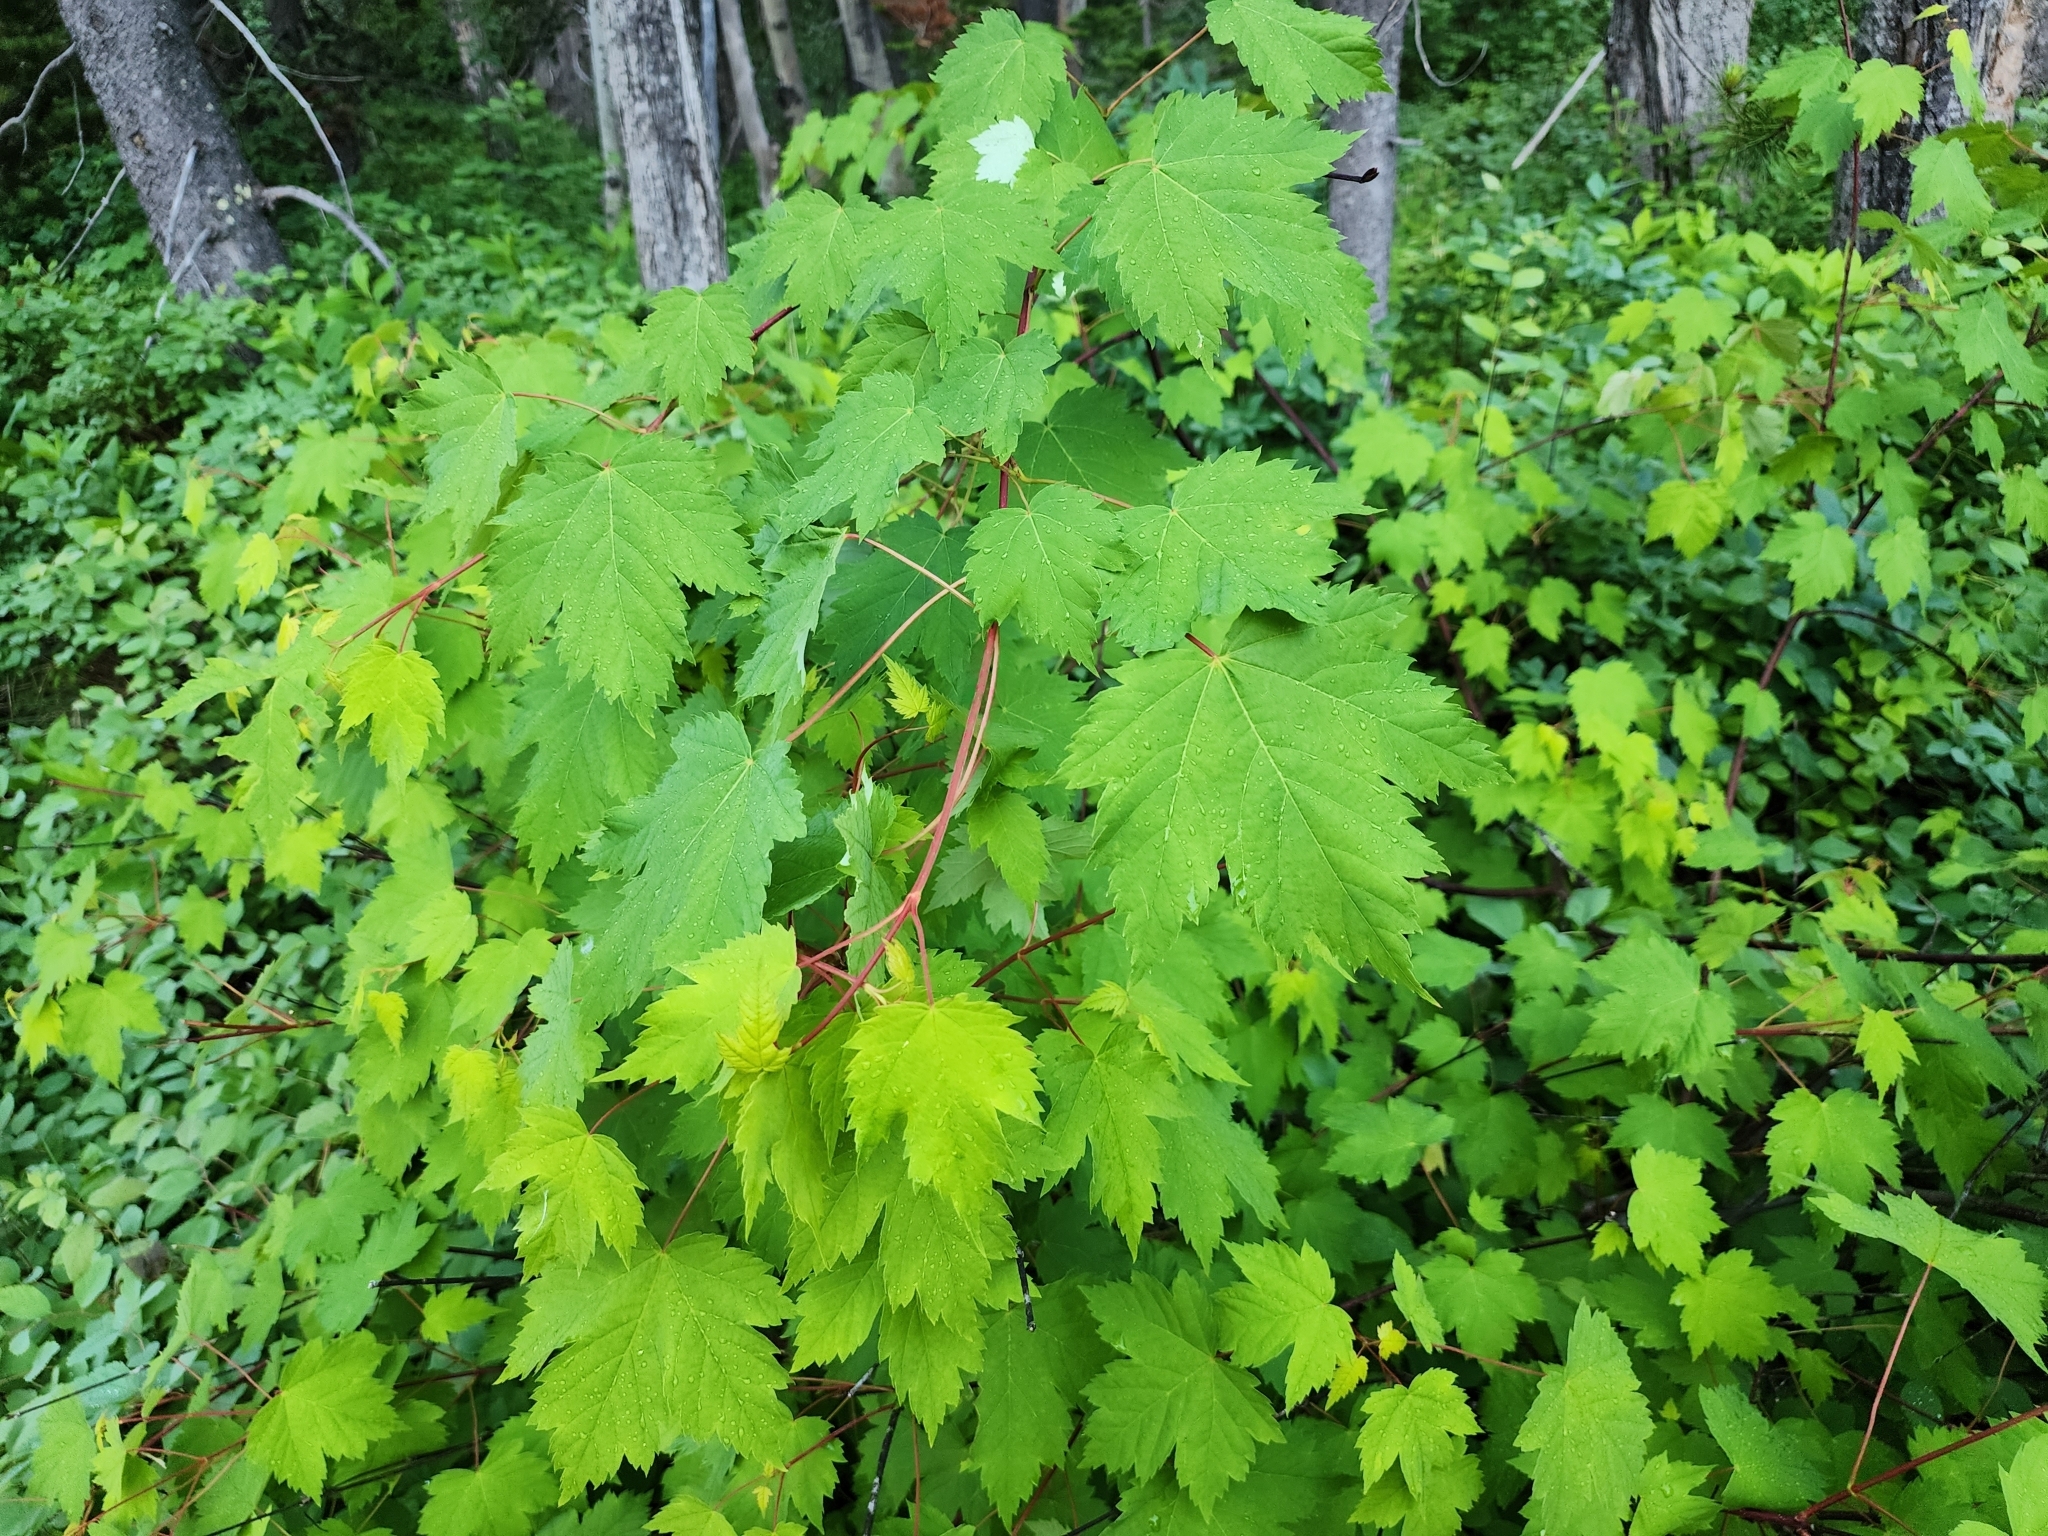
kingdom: Plantae
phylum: Tracheophyta
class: Magnoliopsida
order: Sapindales
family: Sapindaceae
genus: Acer
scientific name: Acer glabrum
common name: Rocky mountain maple
